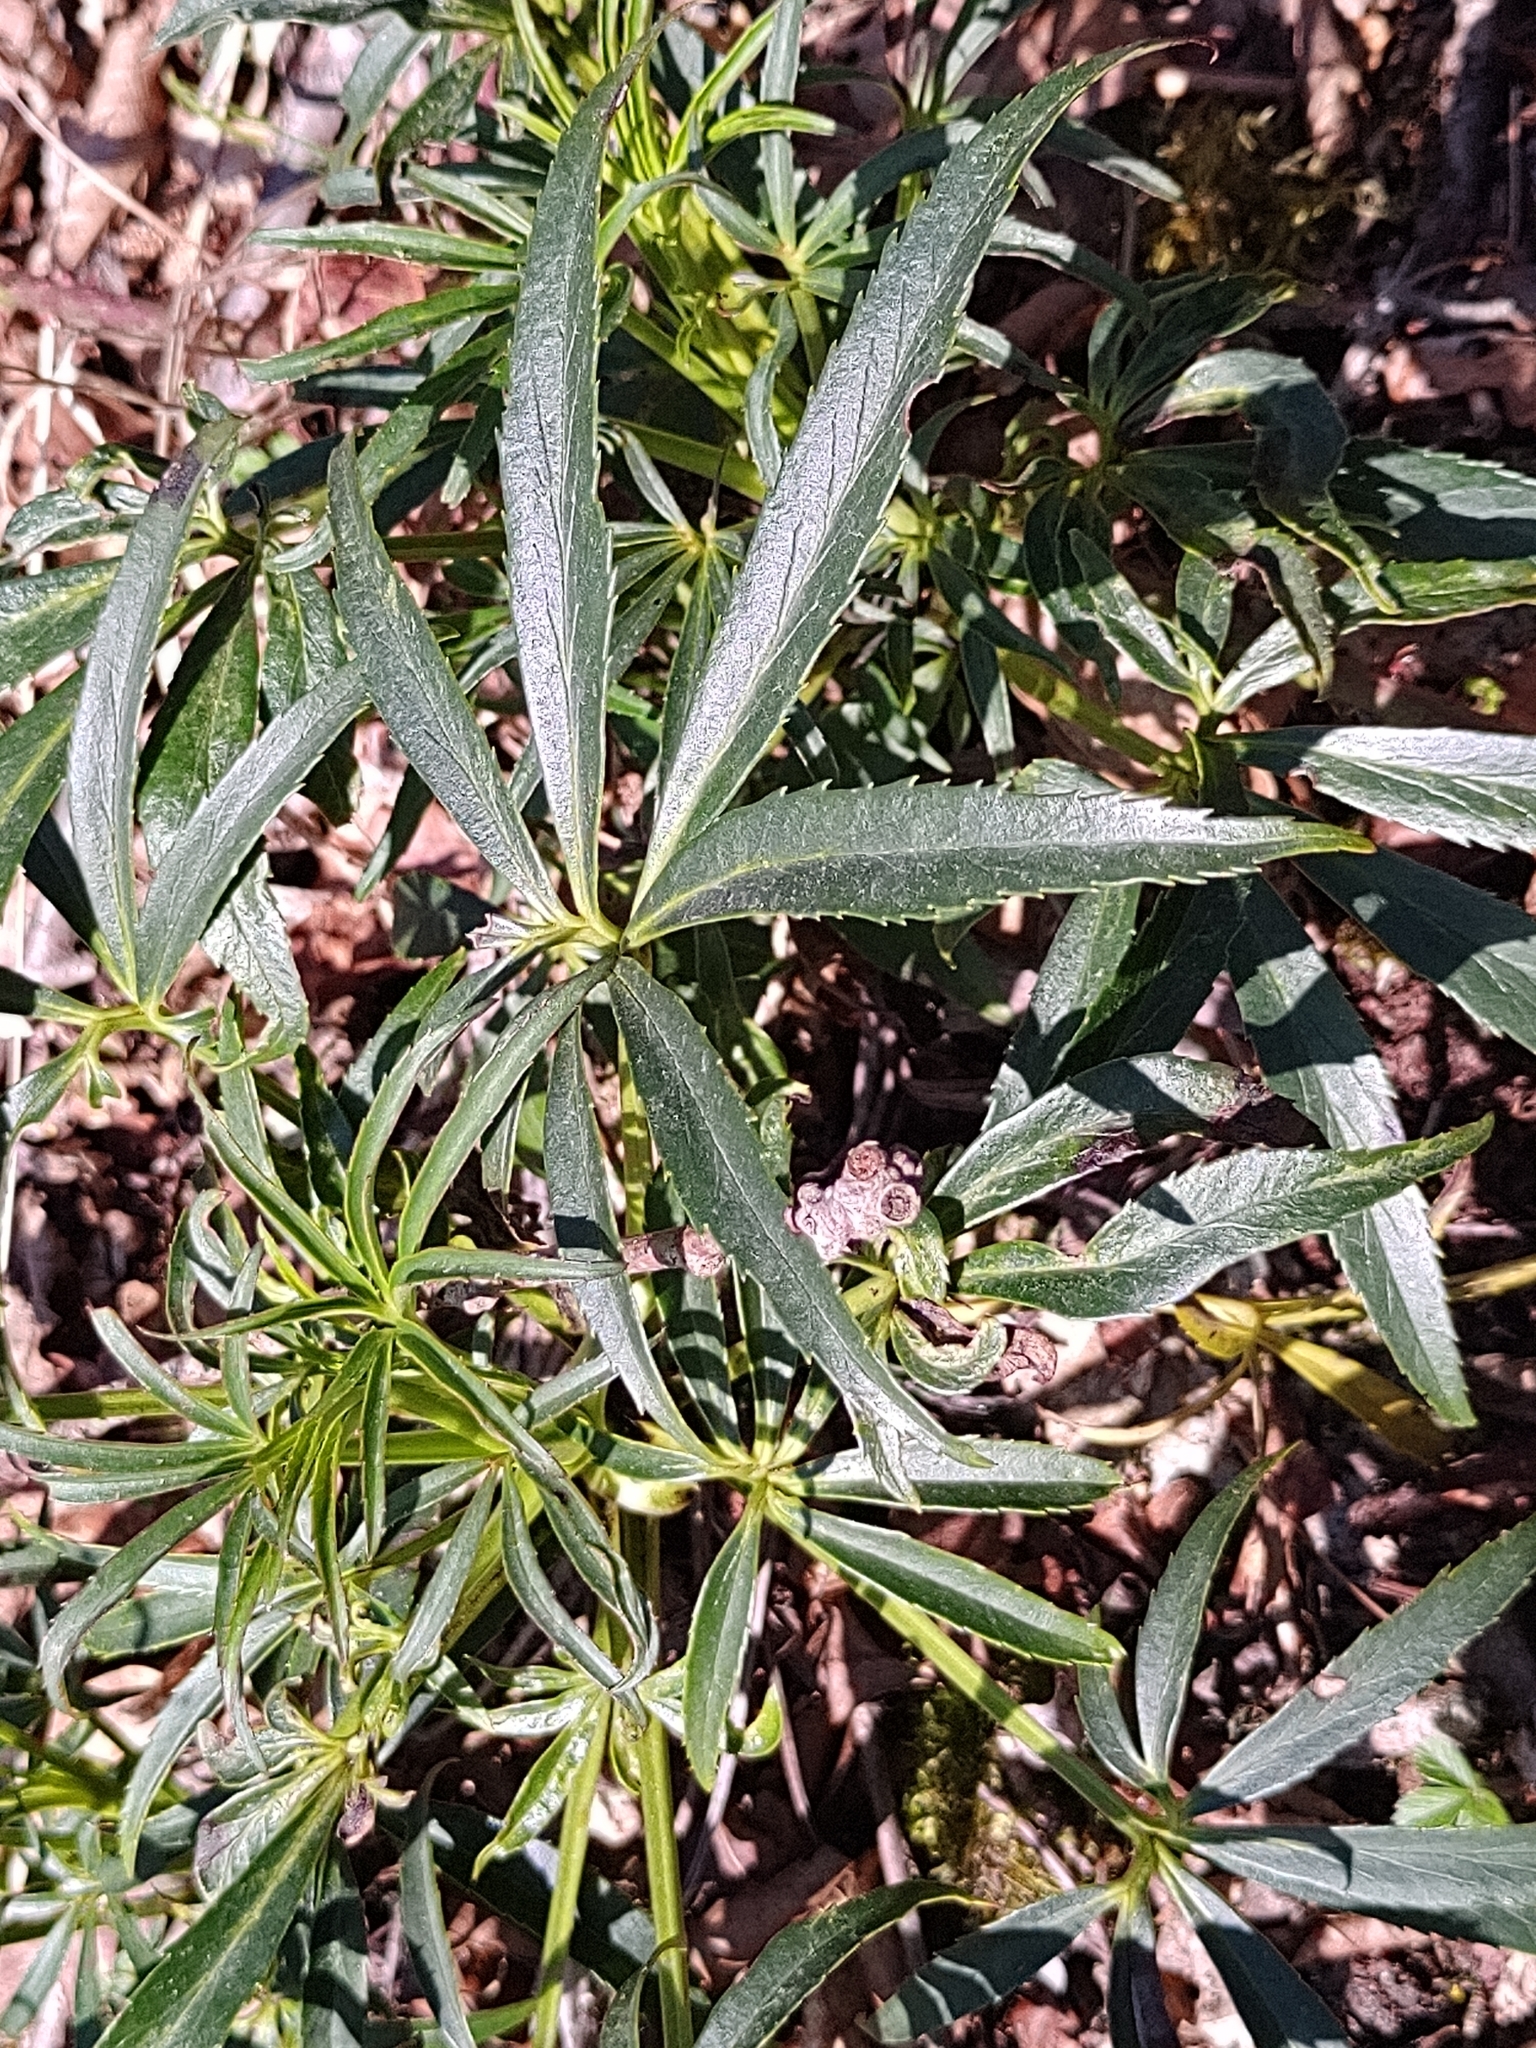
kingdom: Plantae
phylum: Tracheophyta
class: Magnoliopsida
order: Ranunculales
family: Ranunculaceae
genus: Helleborus
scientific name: Helleborus foetidus
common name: Stinking hellebore
